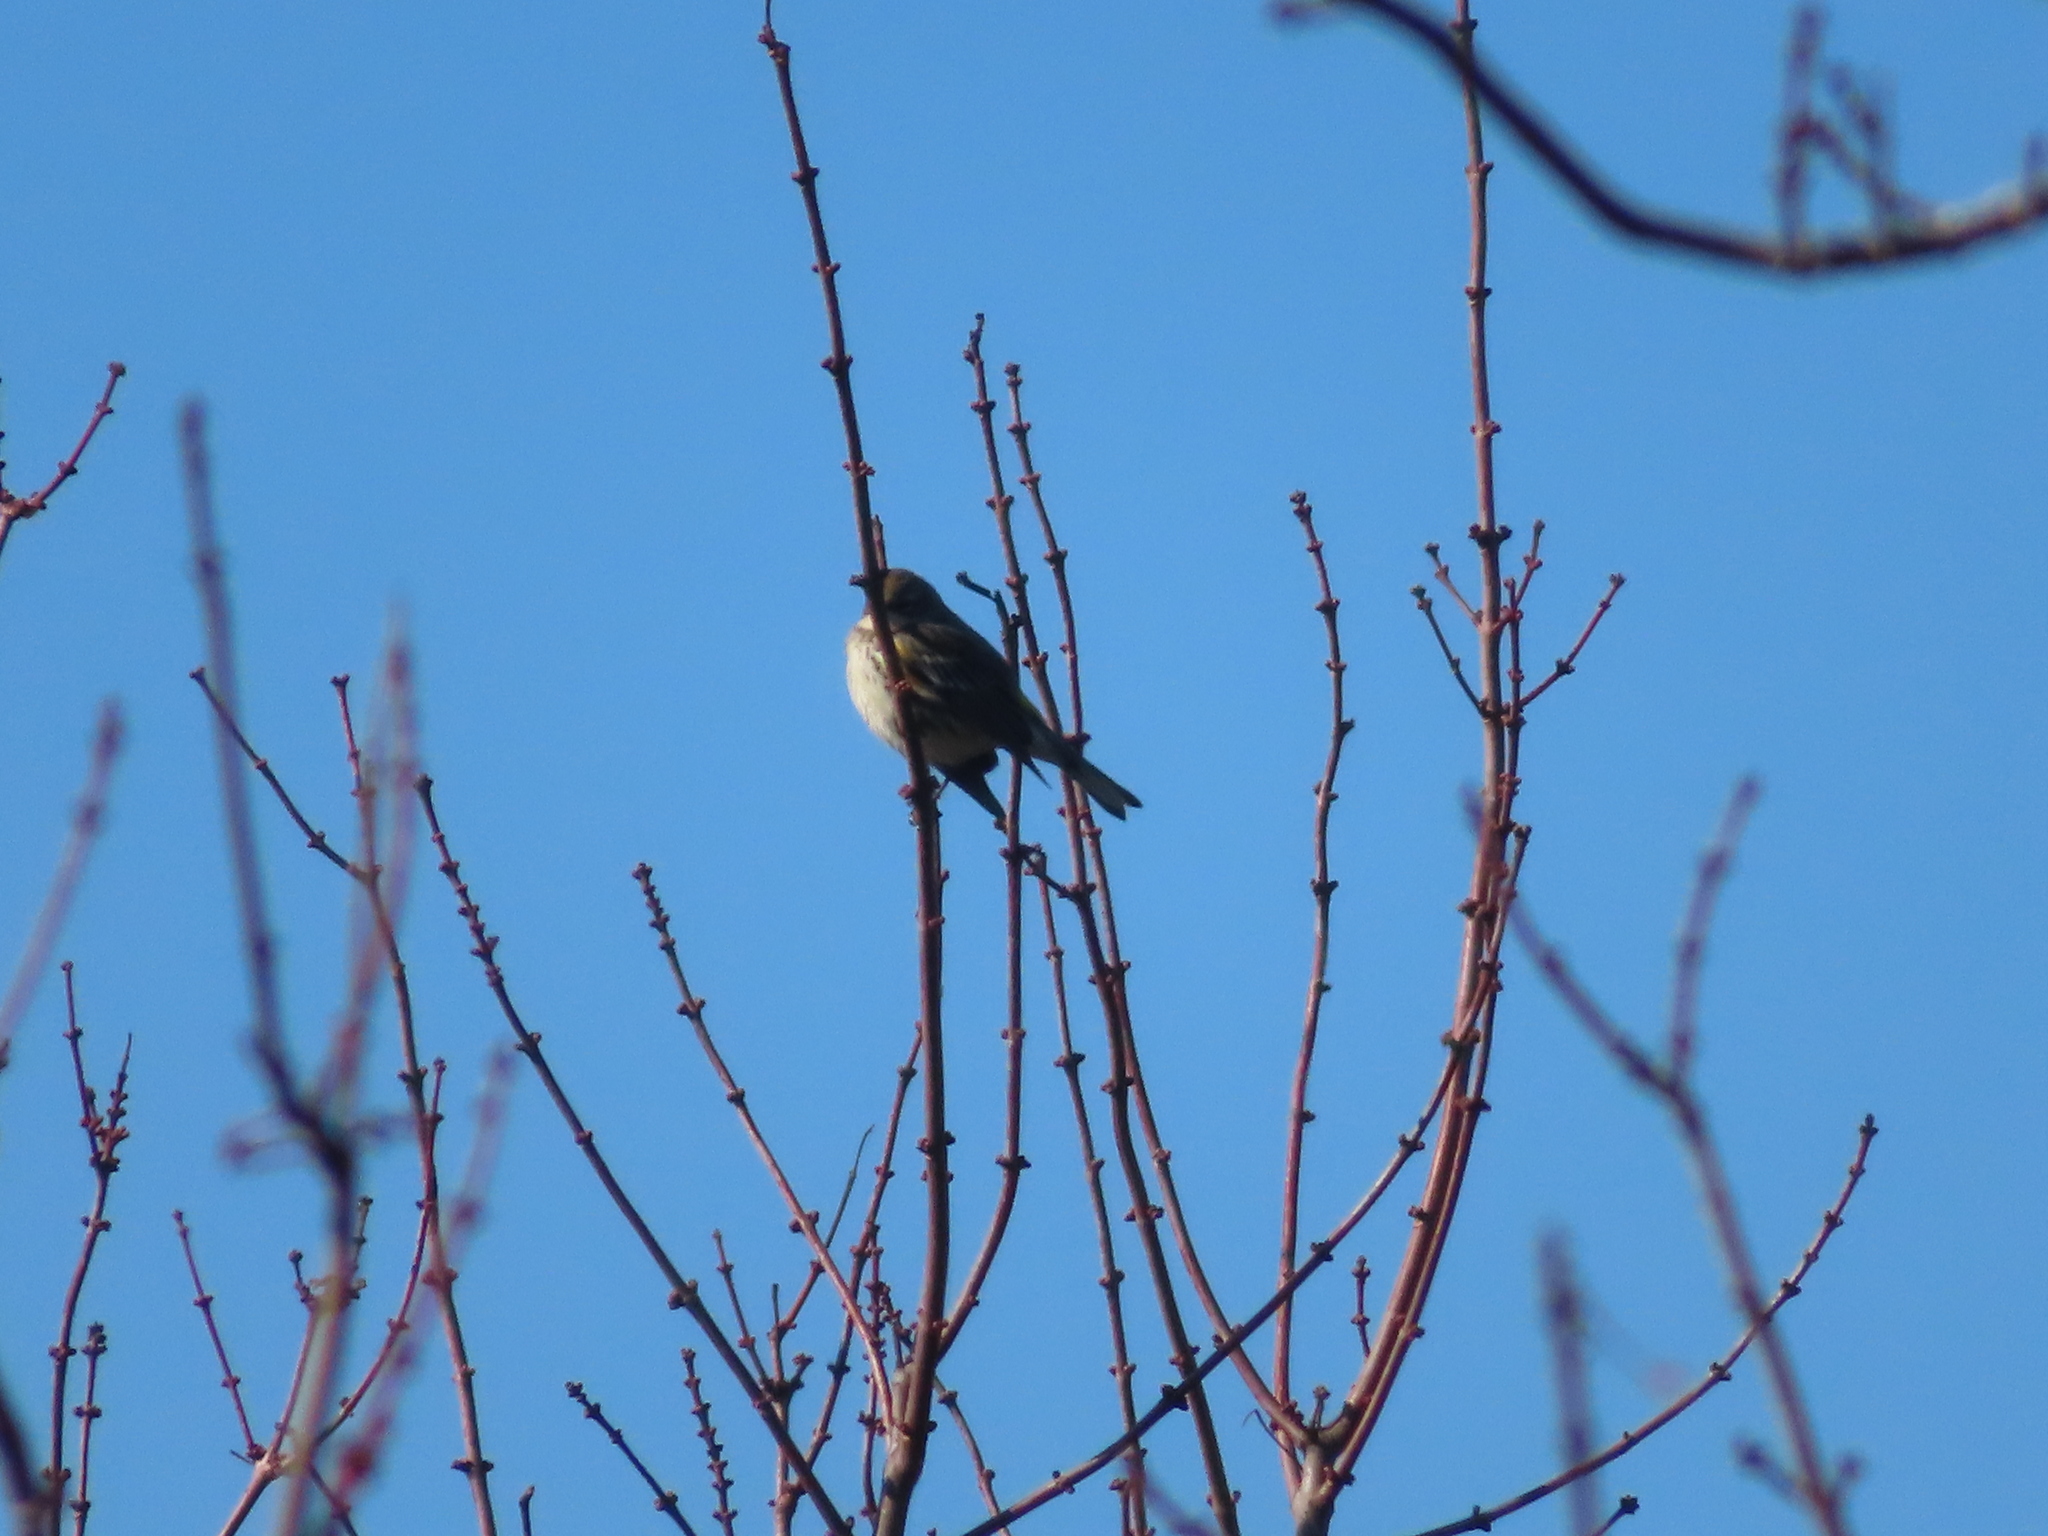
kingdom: Animalia
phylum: Chordata
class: Aves
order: Passeriformes
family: Parulidae
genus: Setophaga
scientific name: Setophaga coronata
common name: Myrtle warbler
